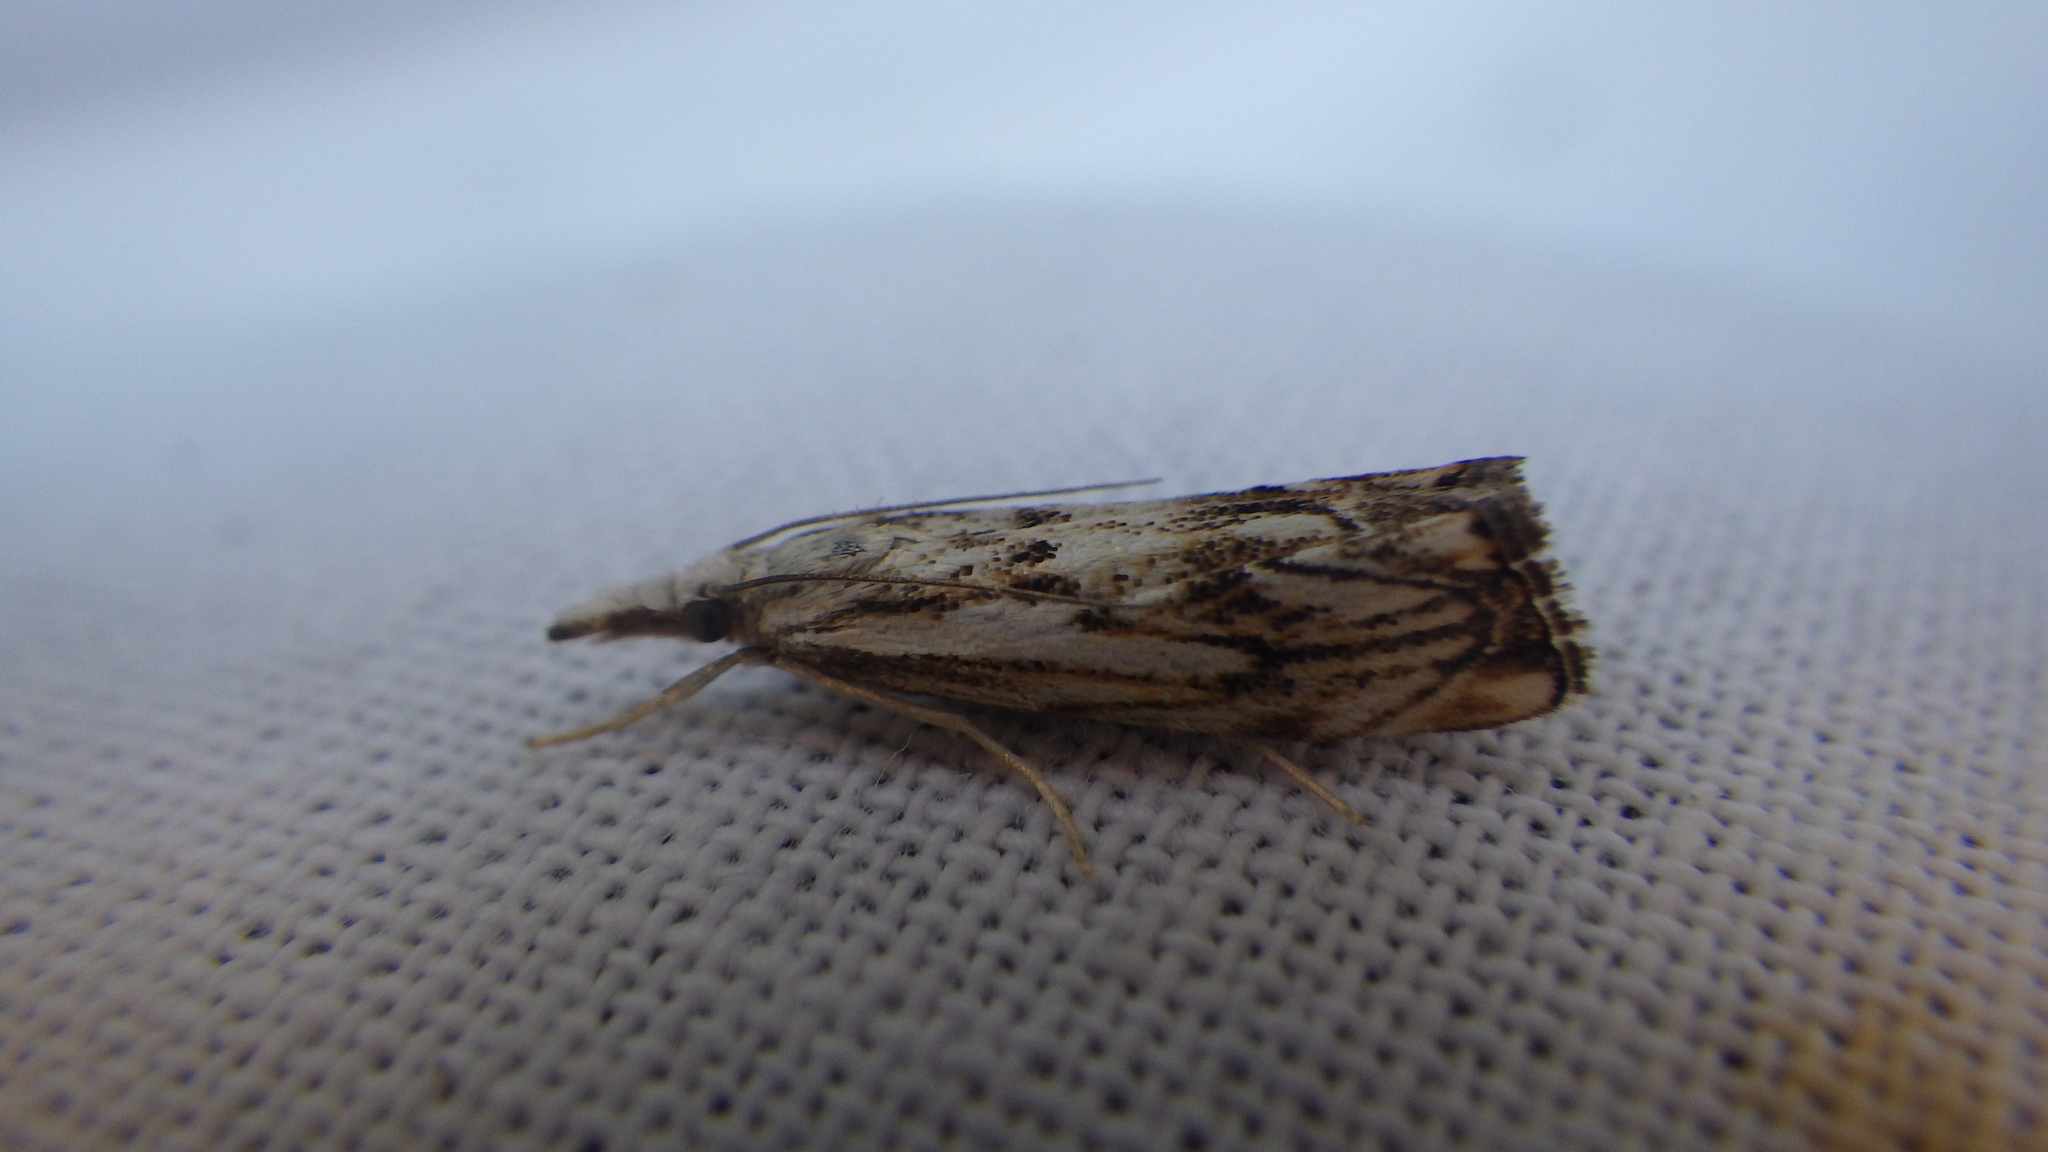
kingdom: Animalia
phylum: Arthropoda
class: Insecta
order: Lepidoptera
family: Crambidae
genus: Catoptria
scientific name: Catoptria falsella
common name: Chequered grass-veneer
